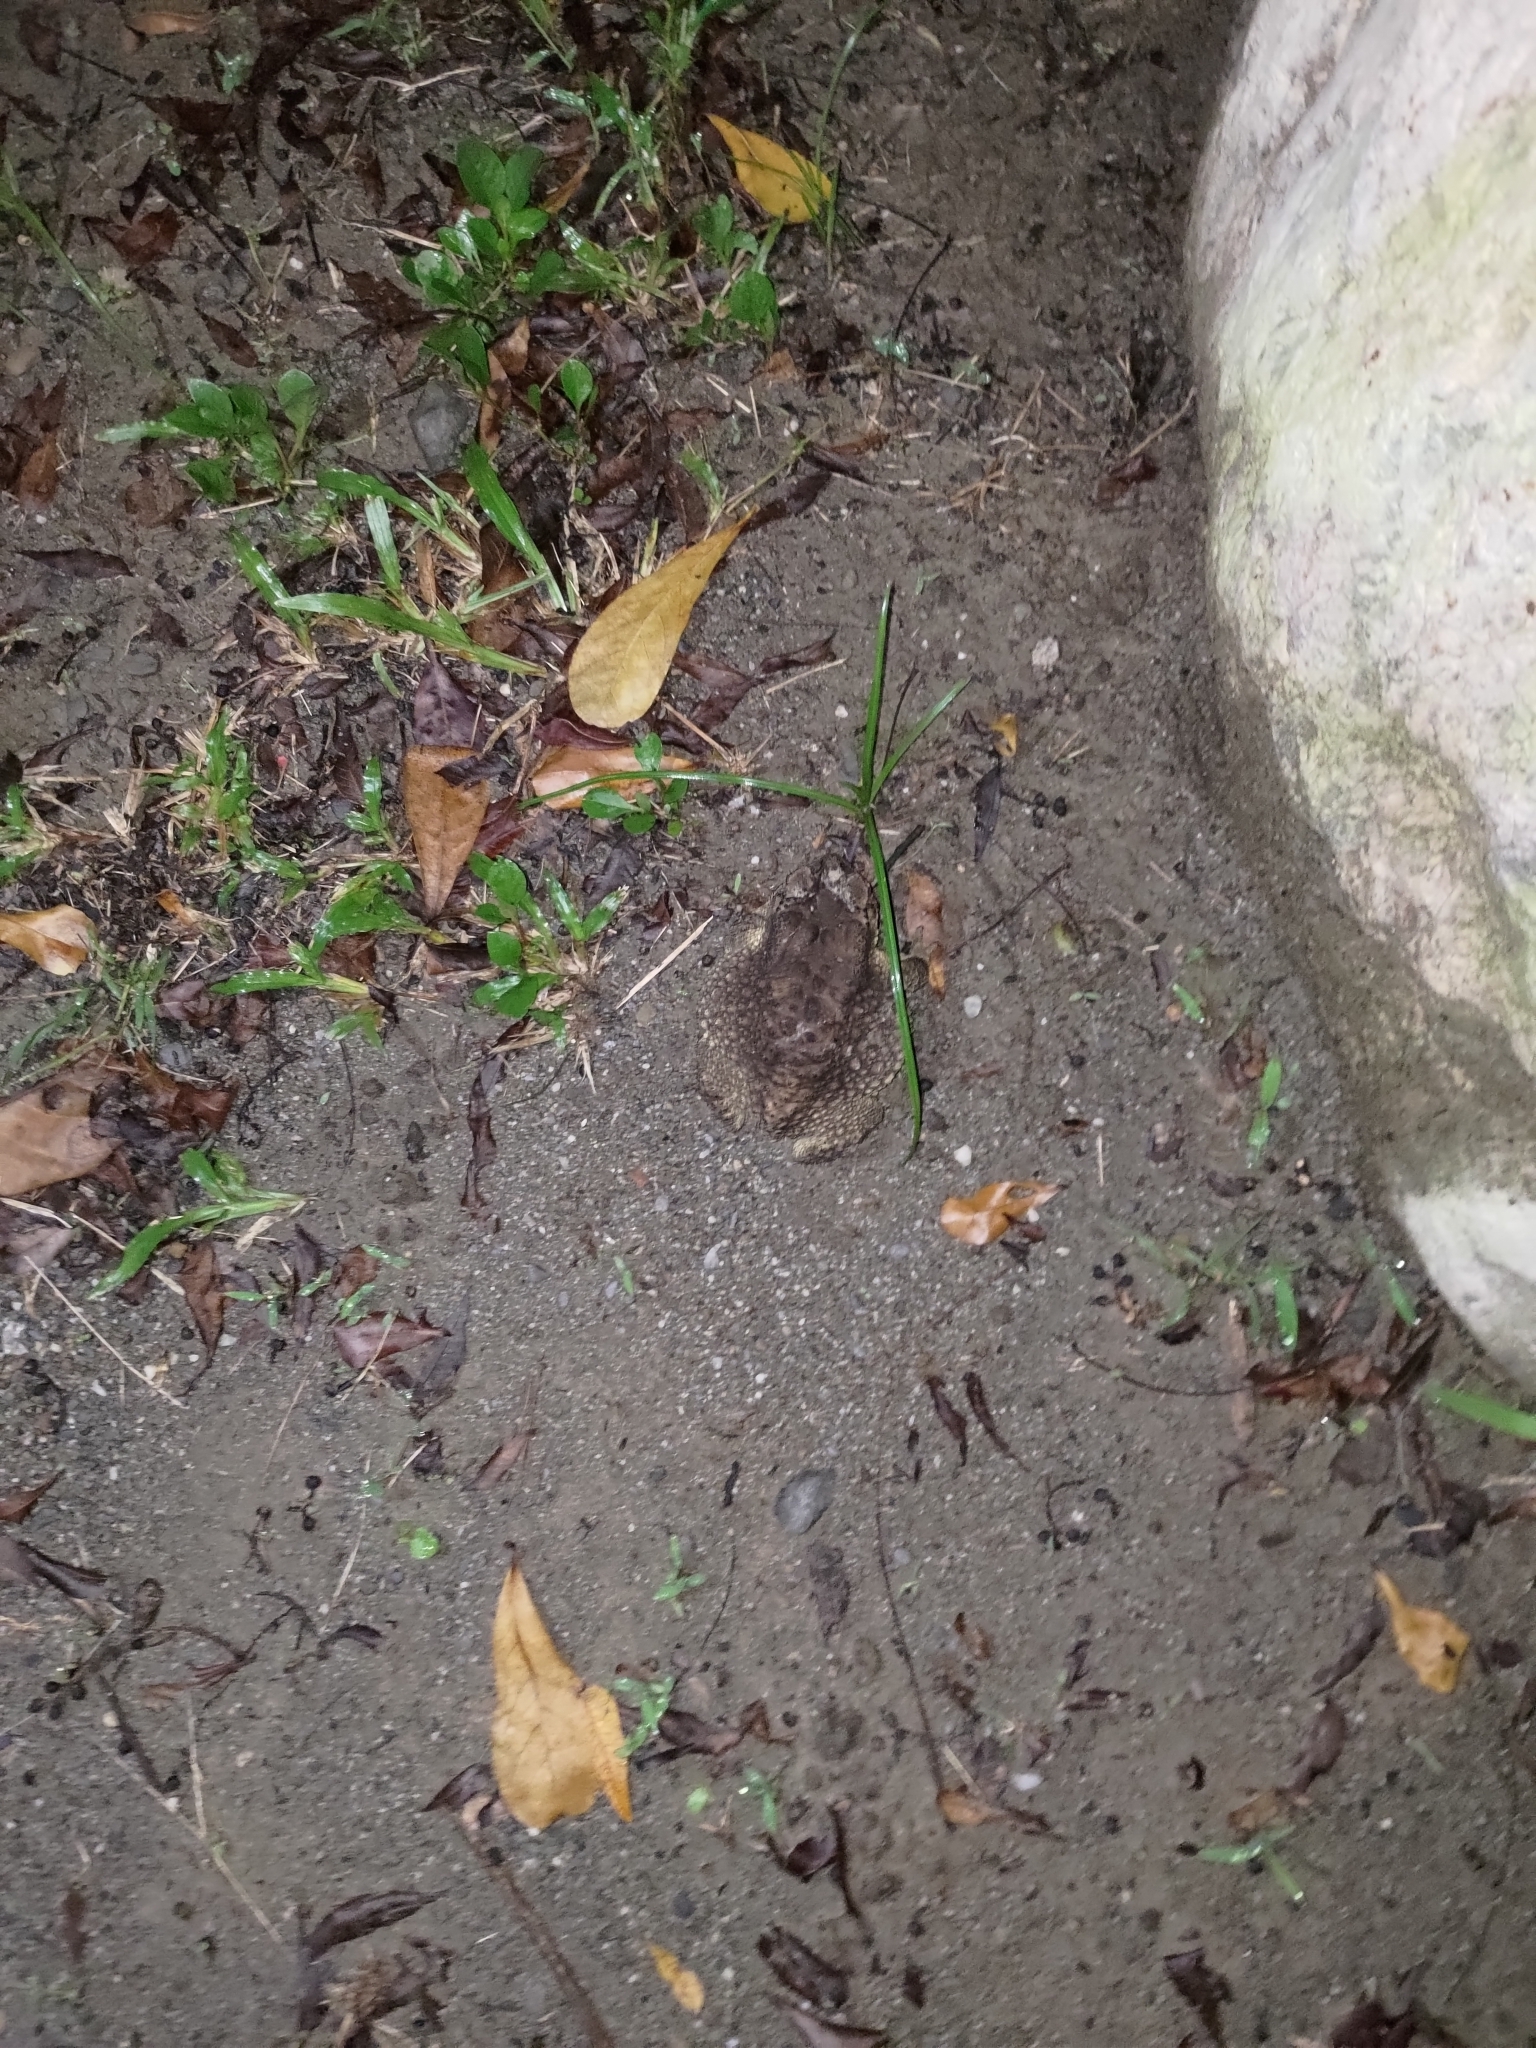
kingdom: Animalia
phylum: Chordata
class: Amphibia
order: Anura
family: Bufonidae
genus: Duttaphrynus
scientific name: Duttaphrynus melanostictus
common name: Common sunda toad
